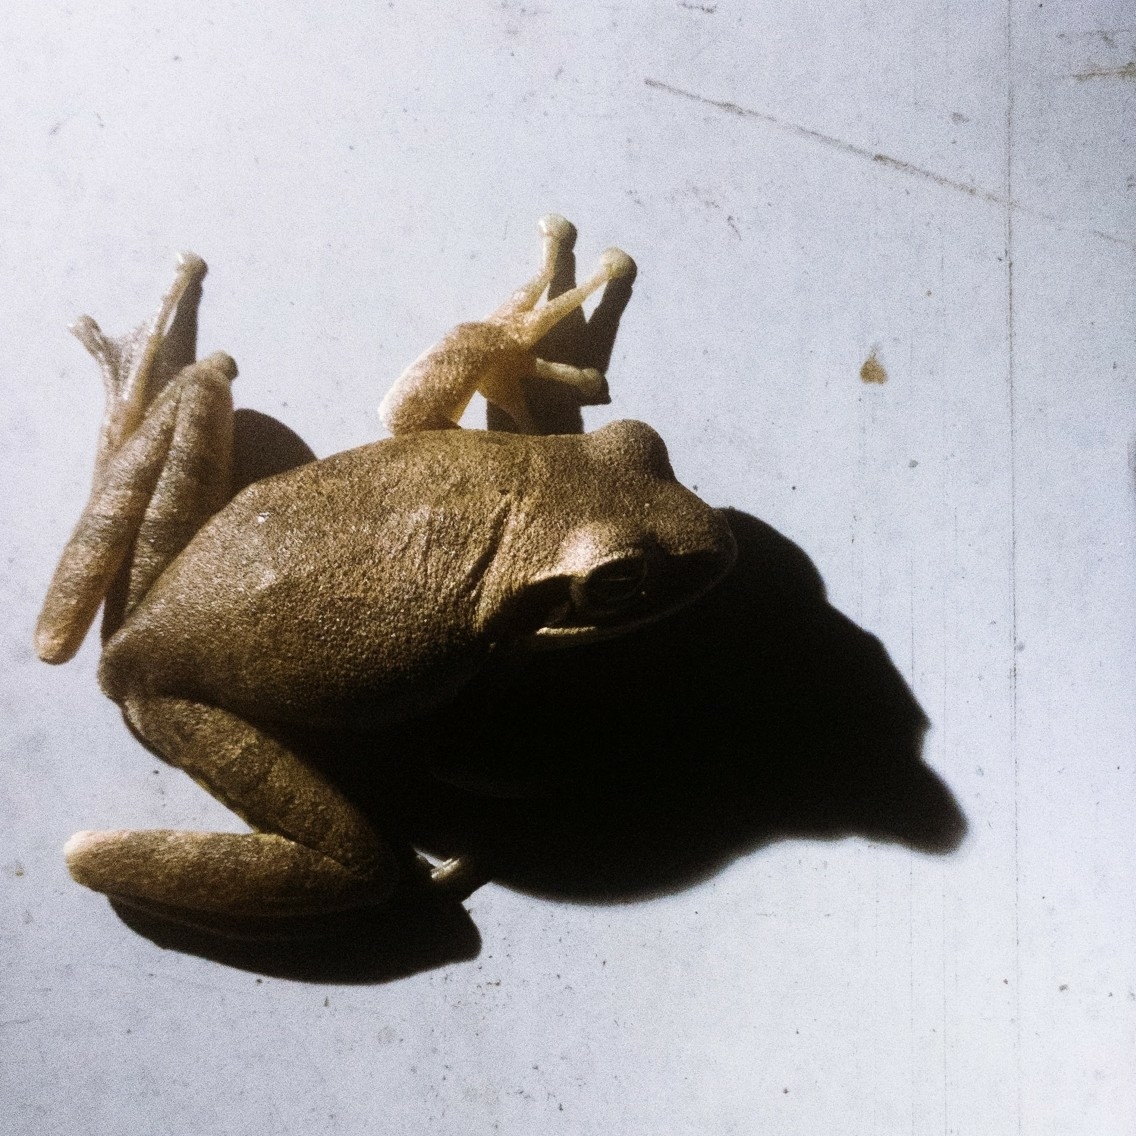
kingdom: Animalia
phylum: Chordata
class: Amphibia
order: Anura
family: Rhacophoridae
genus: Polypedates
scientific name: Polypedates maculatus
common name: Himalayan tree frog
